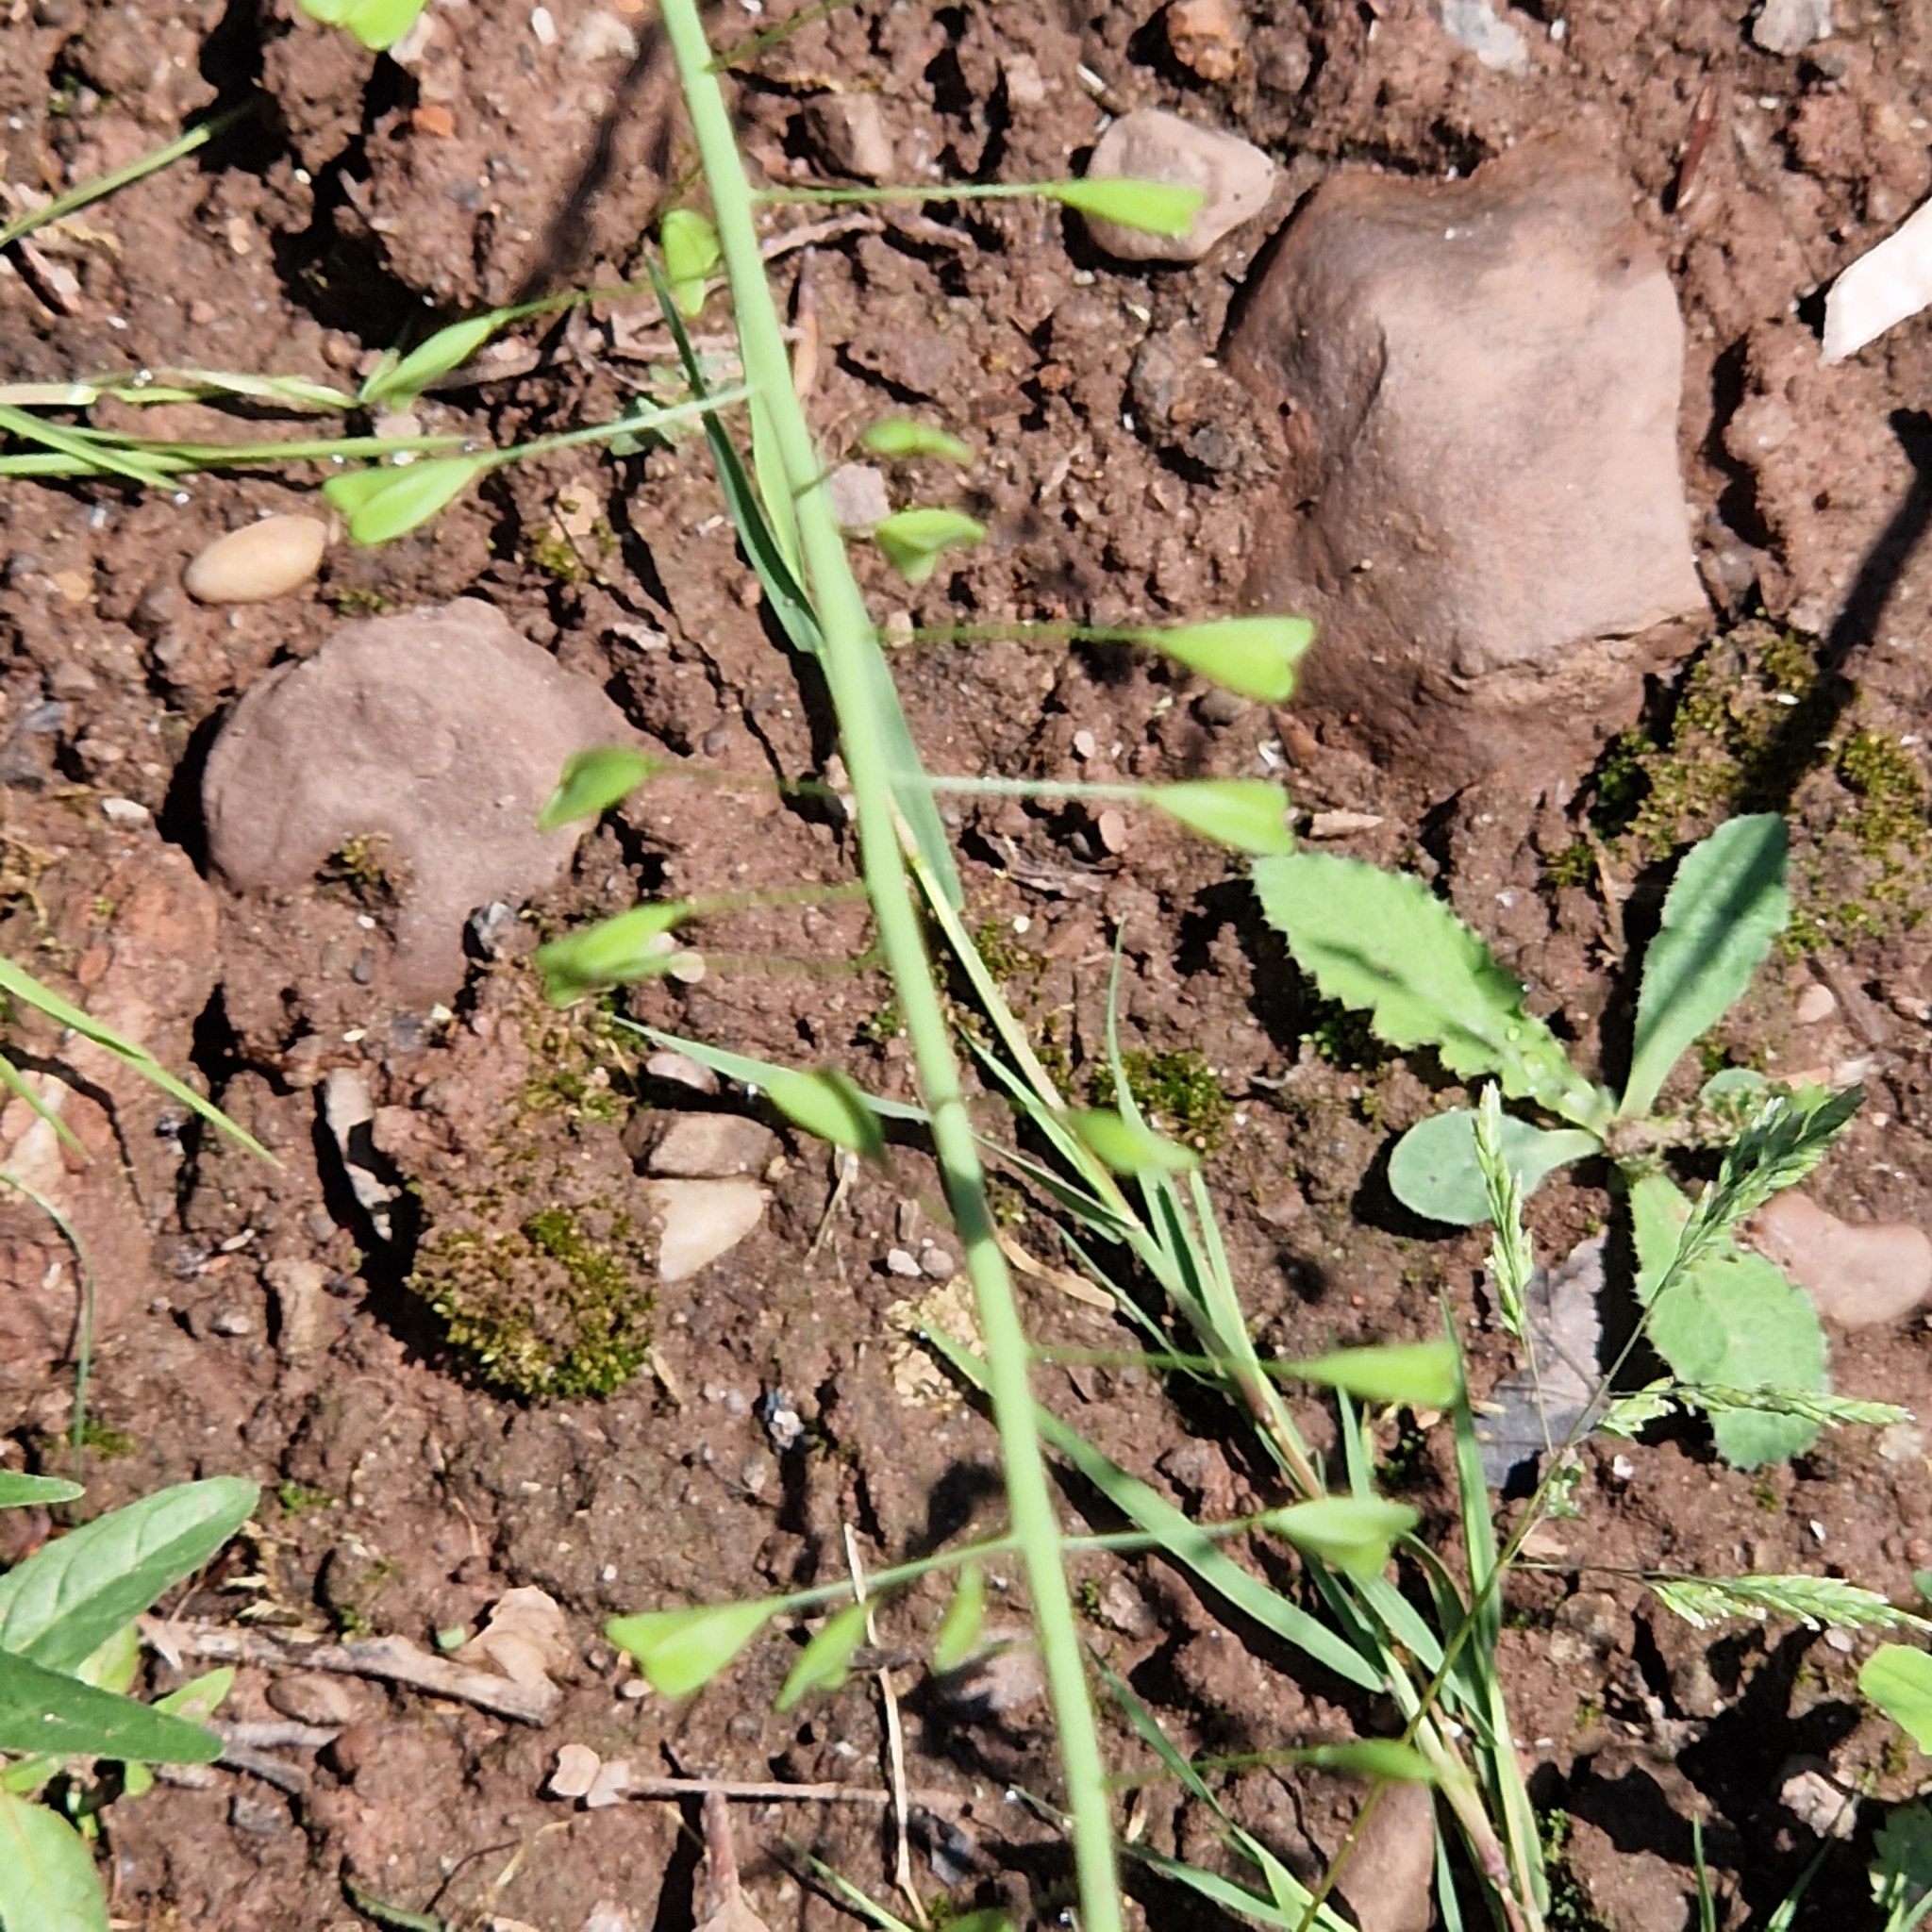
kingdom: Plantae
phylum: Tracheophyta
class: Magnoliopsida
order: Brassicales
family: Brassicaceae
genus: Capsella
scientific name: Capsella bursa-pastoris
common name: Shepherd's purse
